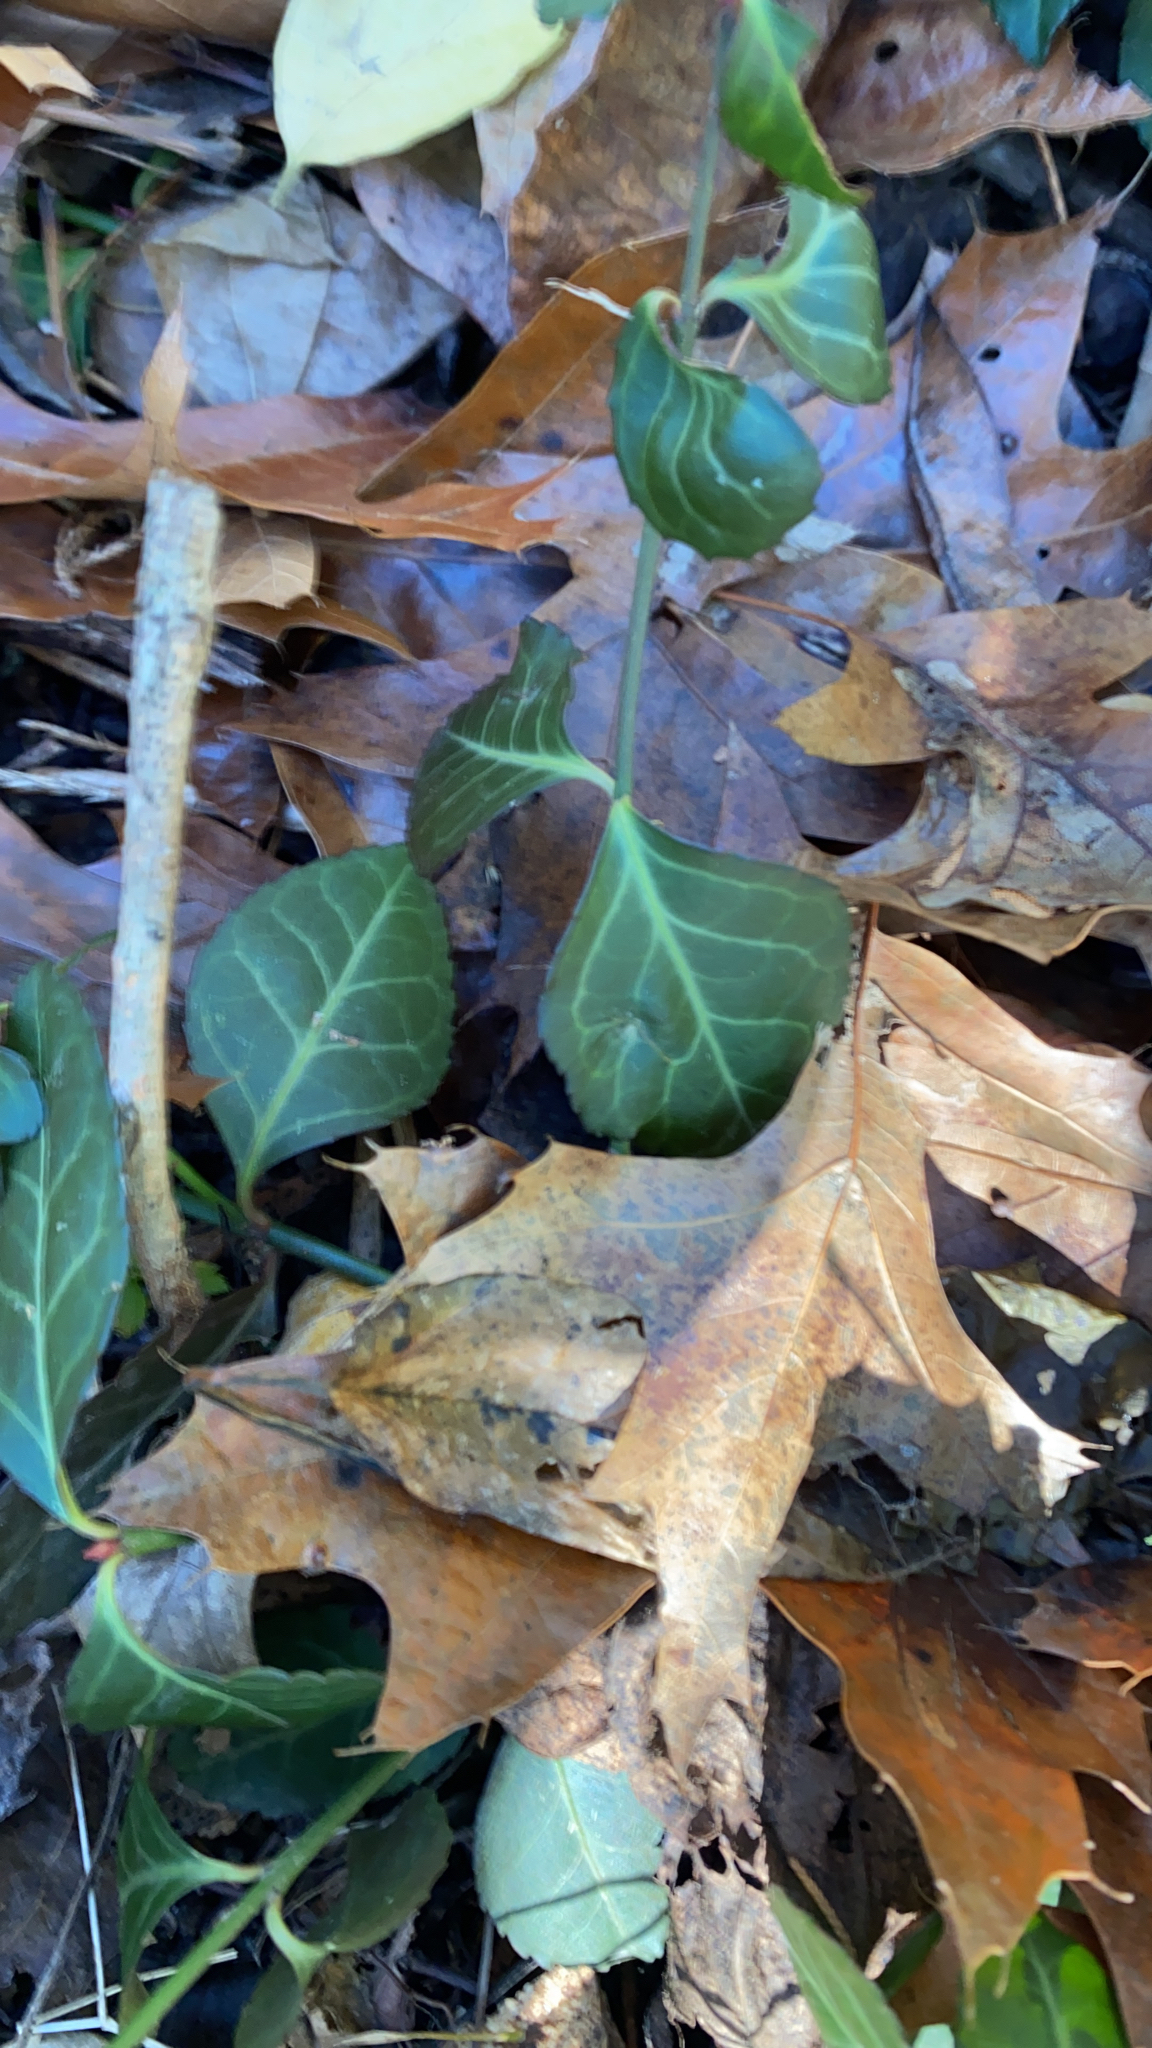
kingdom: Plantae
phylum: Tracheophyta
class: Magnoliopsida
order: Celastrales
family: Celastraceae
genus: Euonymus
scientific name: Euonymus fortunei
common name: Climbing euonymus
